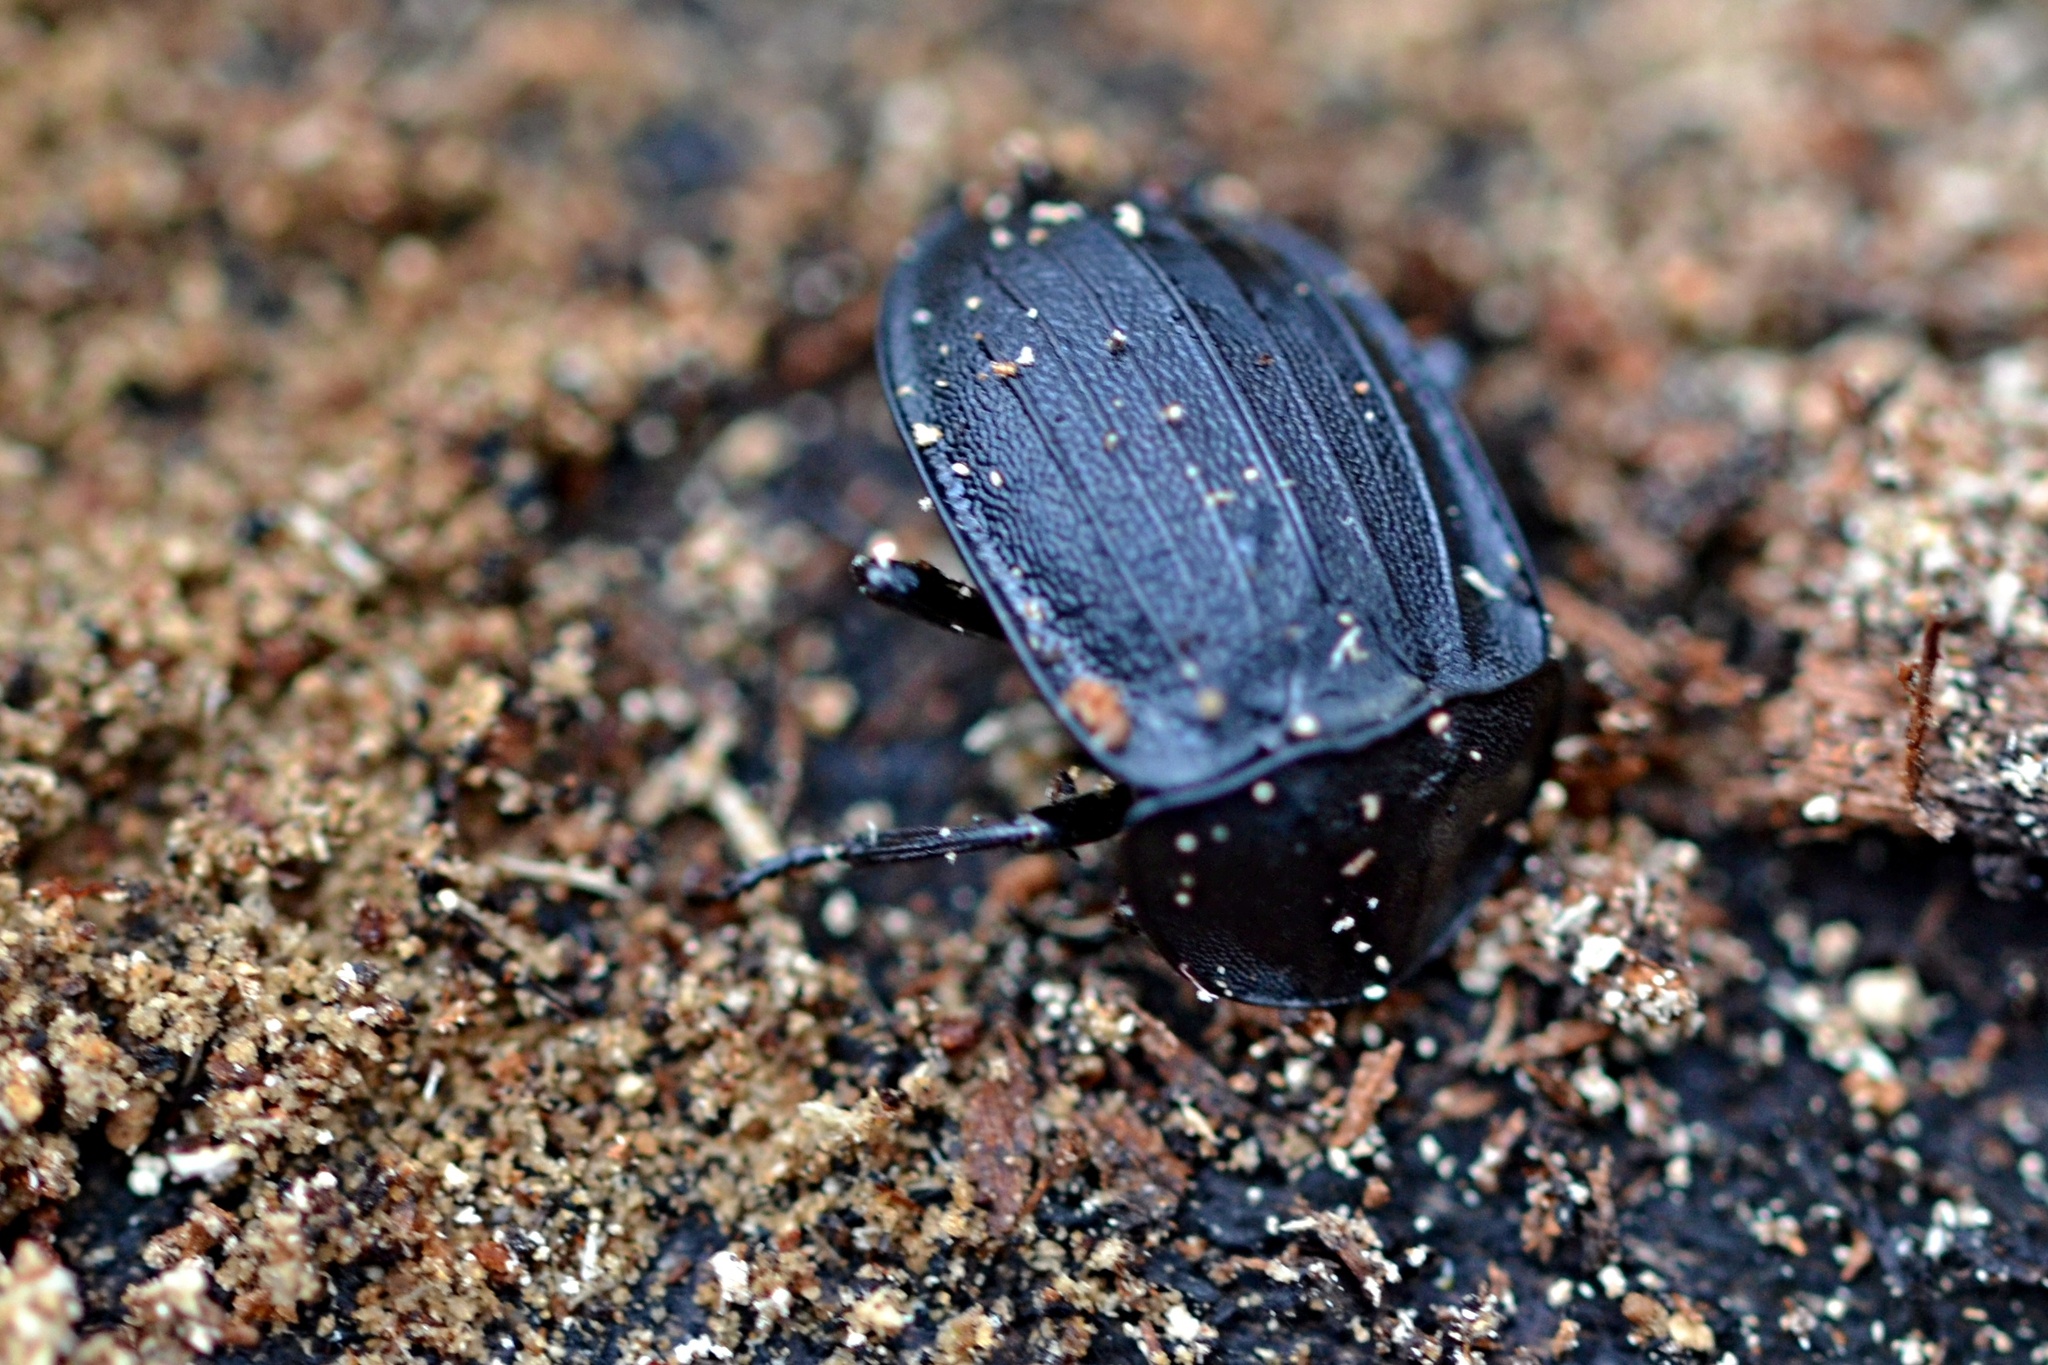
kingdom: Animalia
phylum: Arthropoda
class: Insecta
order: Coleoptera
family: Staphylinidae
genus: Silpha
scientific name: Silpha atrata
